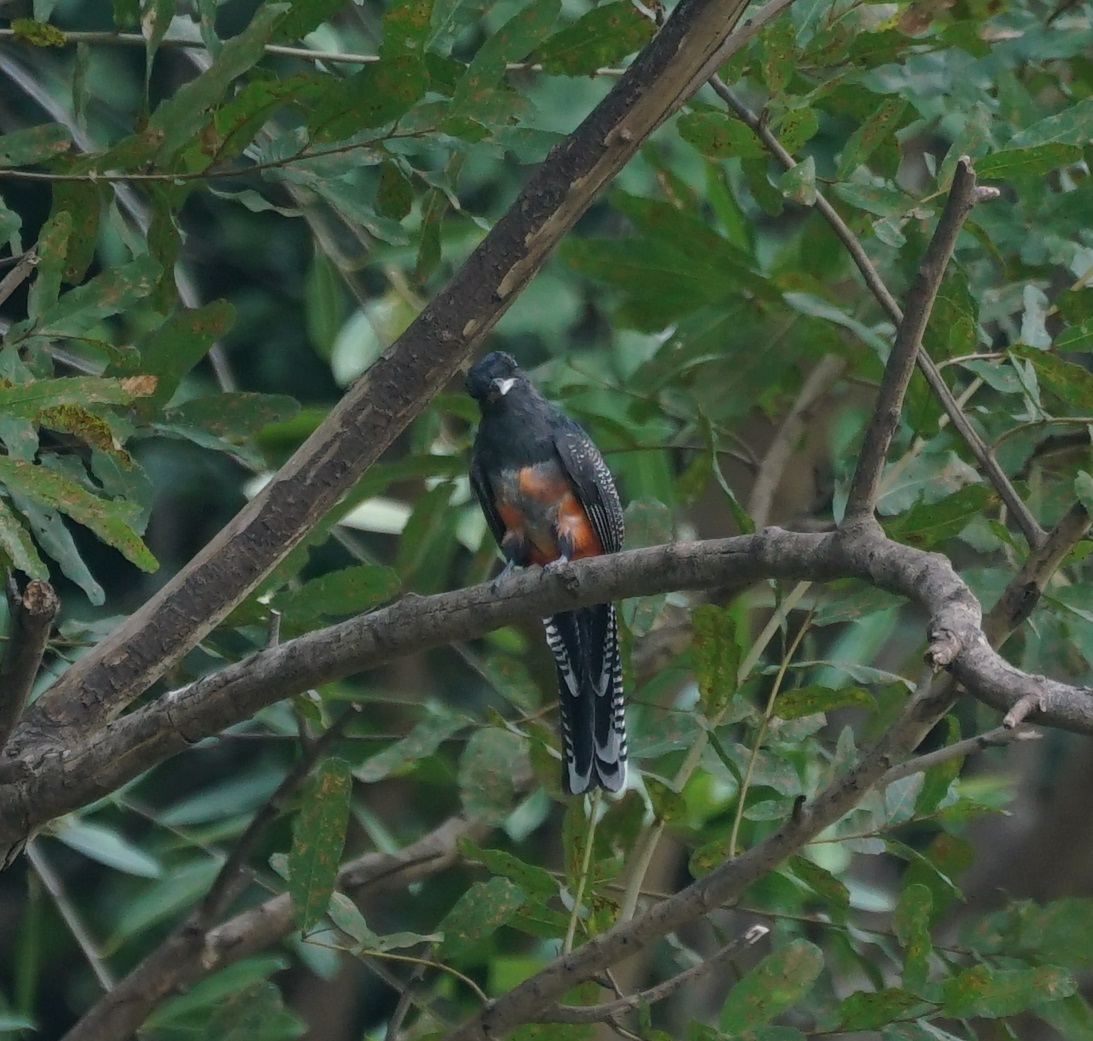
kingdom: Animalia
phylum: Chordata
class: Aves
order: Trogoniformes
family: Trogonidae
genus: Trogon
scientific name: Trogon curucui
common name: Blue-crowned trogon
